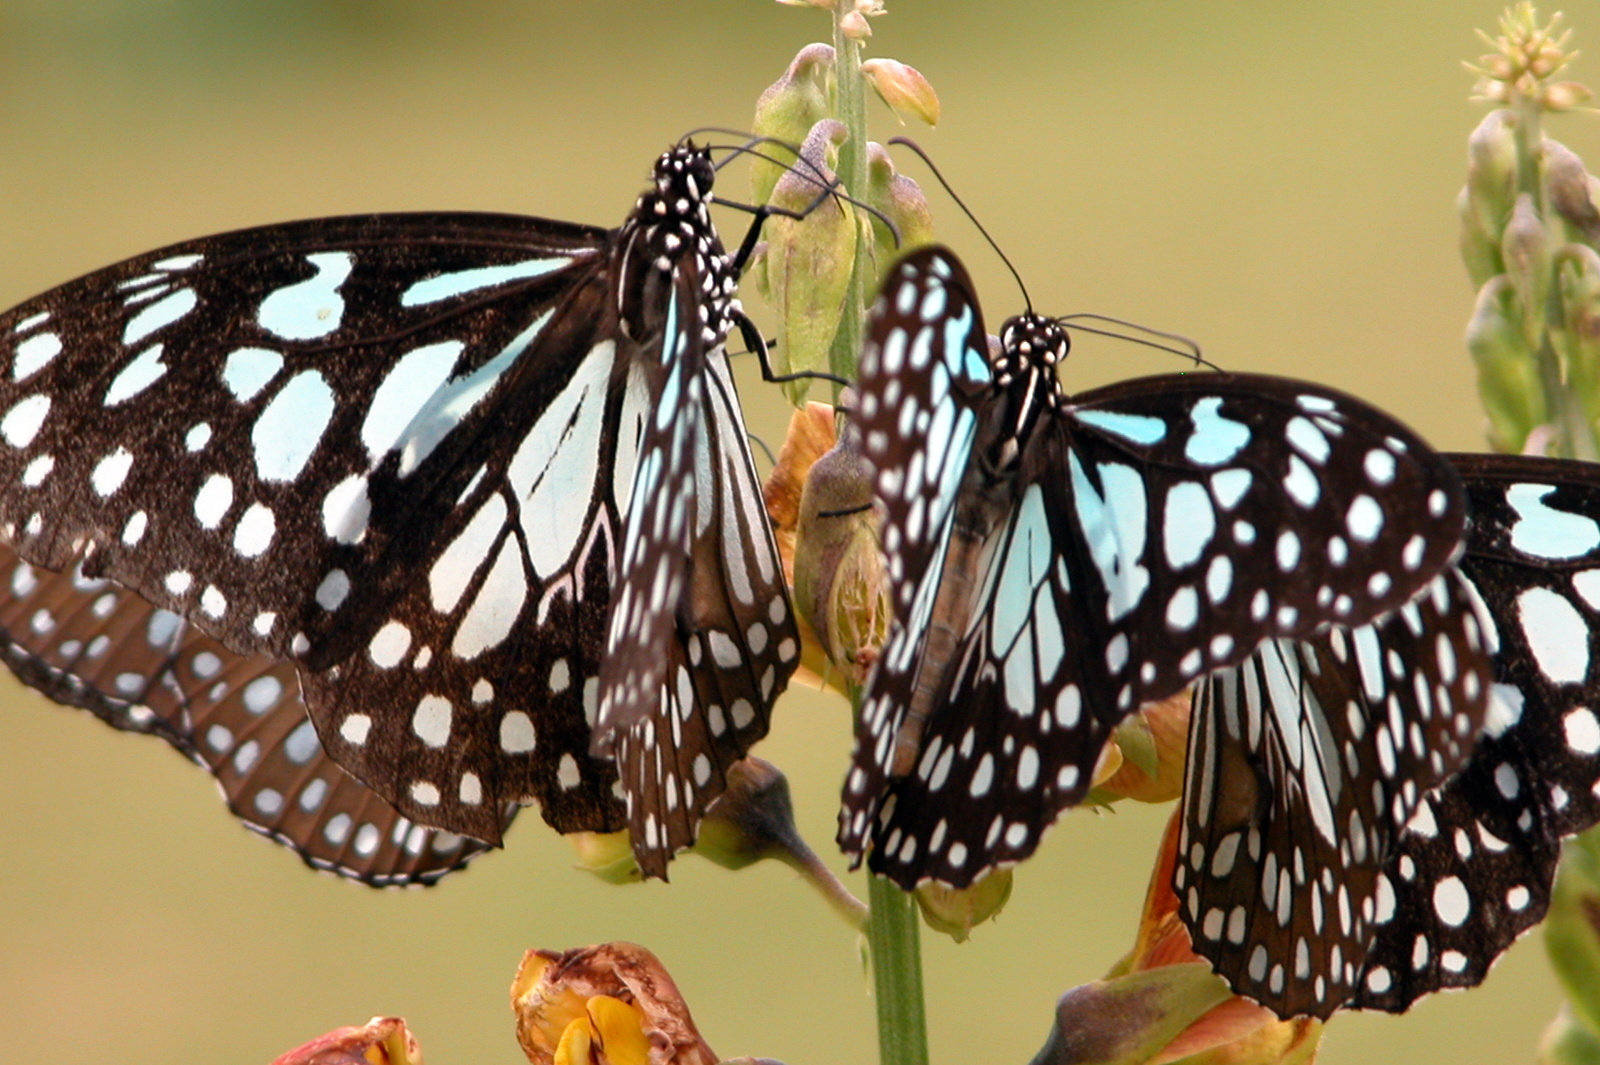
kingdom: Animalia
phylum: Arthropoda
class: Insecta
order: Lepidoptera
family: Nymphalidae
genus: Tirumala
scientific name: Tirumala limniace
